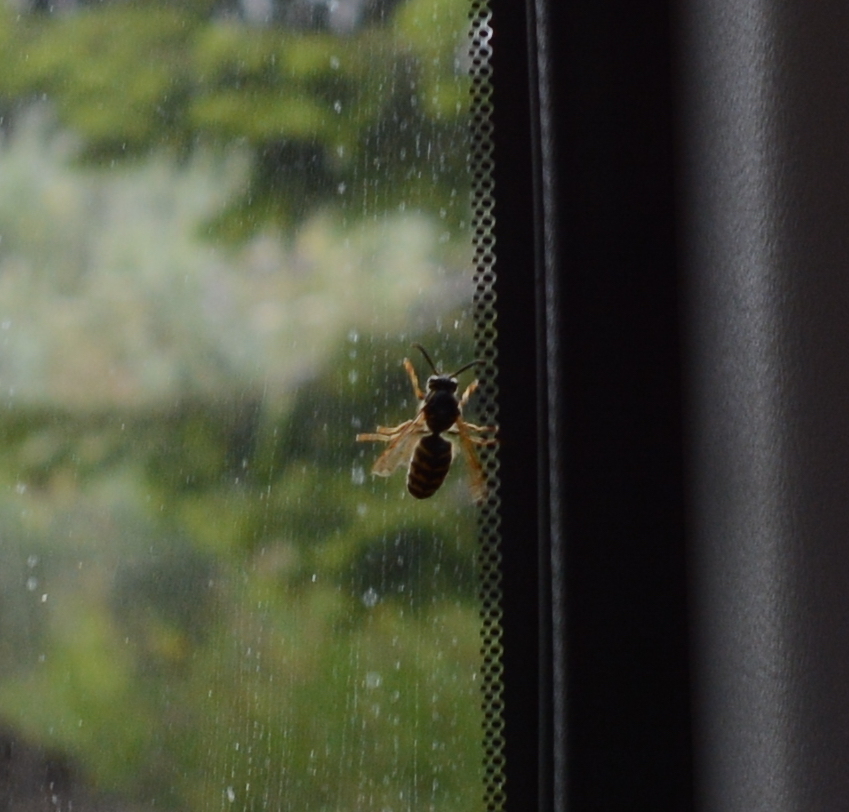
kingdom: Animalia
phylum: Arthropoda
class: Insecta
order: Hymenoptera
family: Vespidae
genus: Dolichovespula
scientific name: Dolichovespula arenaria
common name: Aerial yellowjacket
